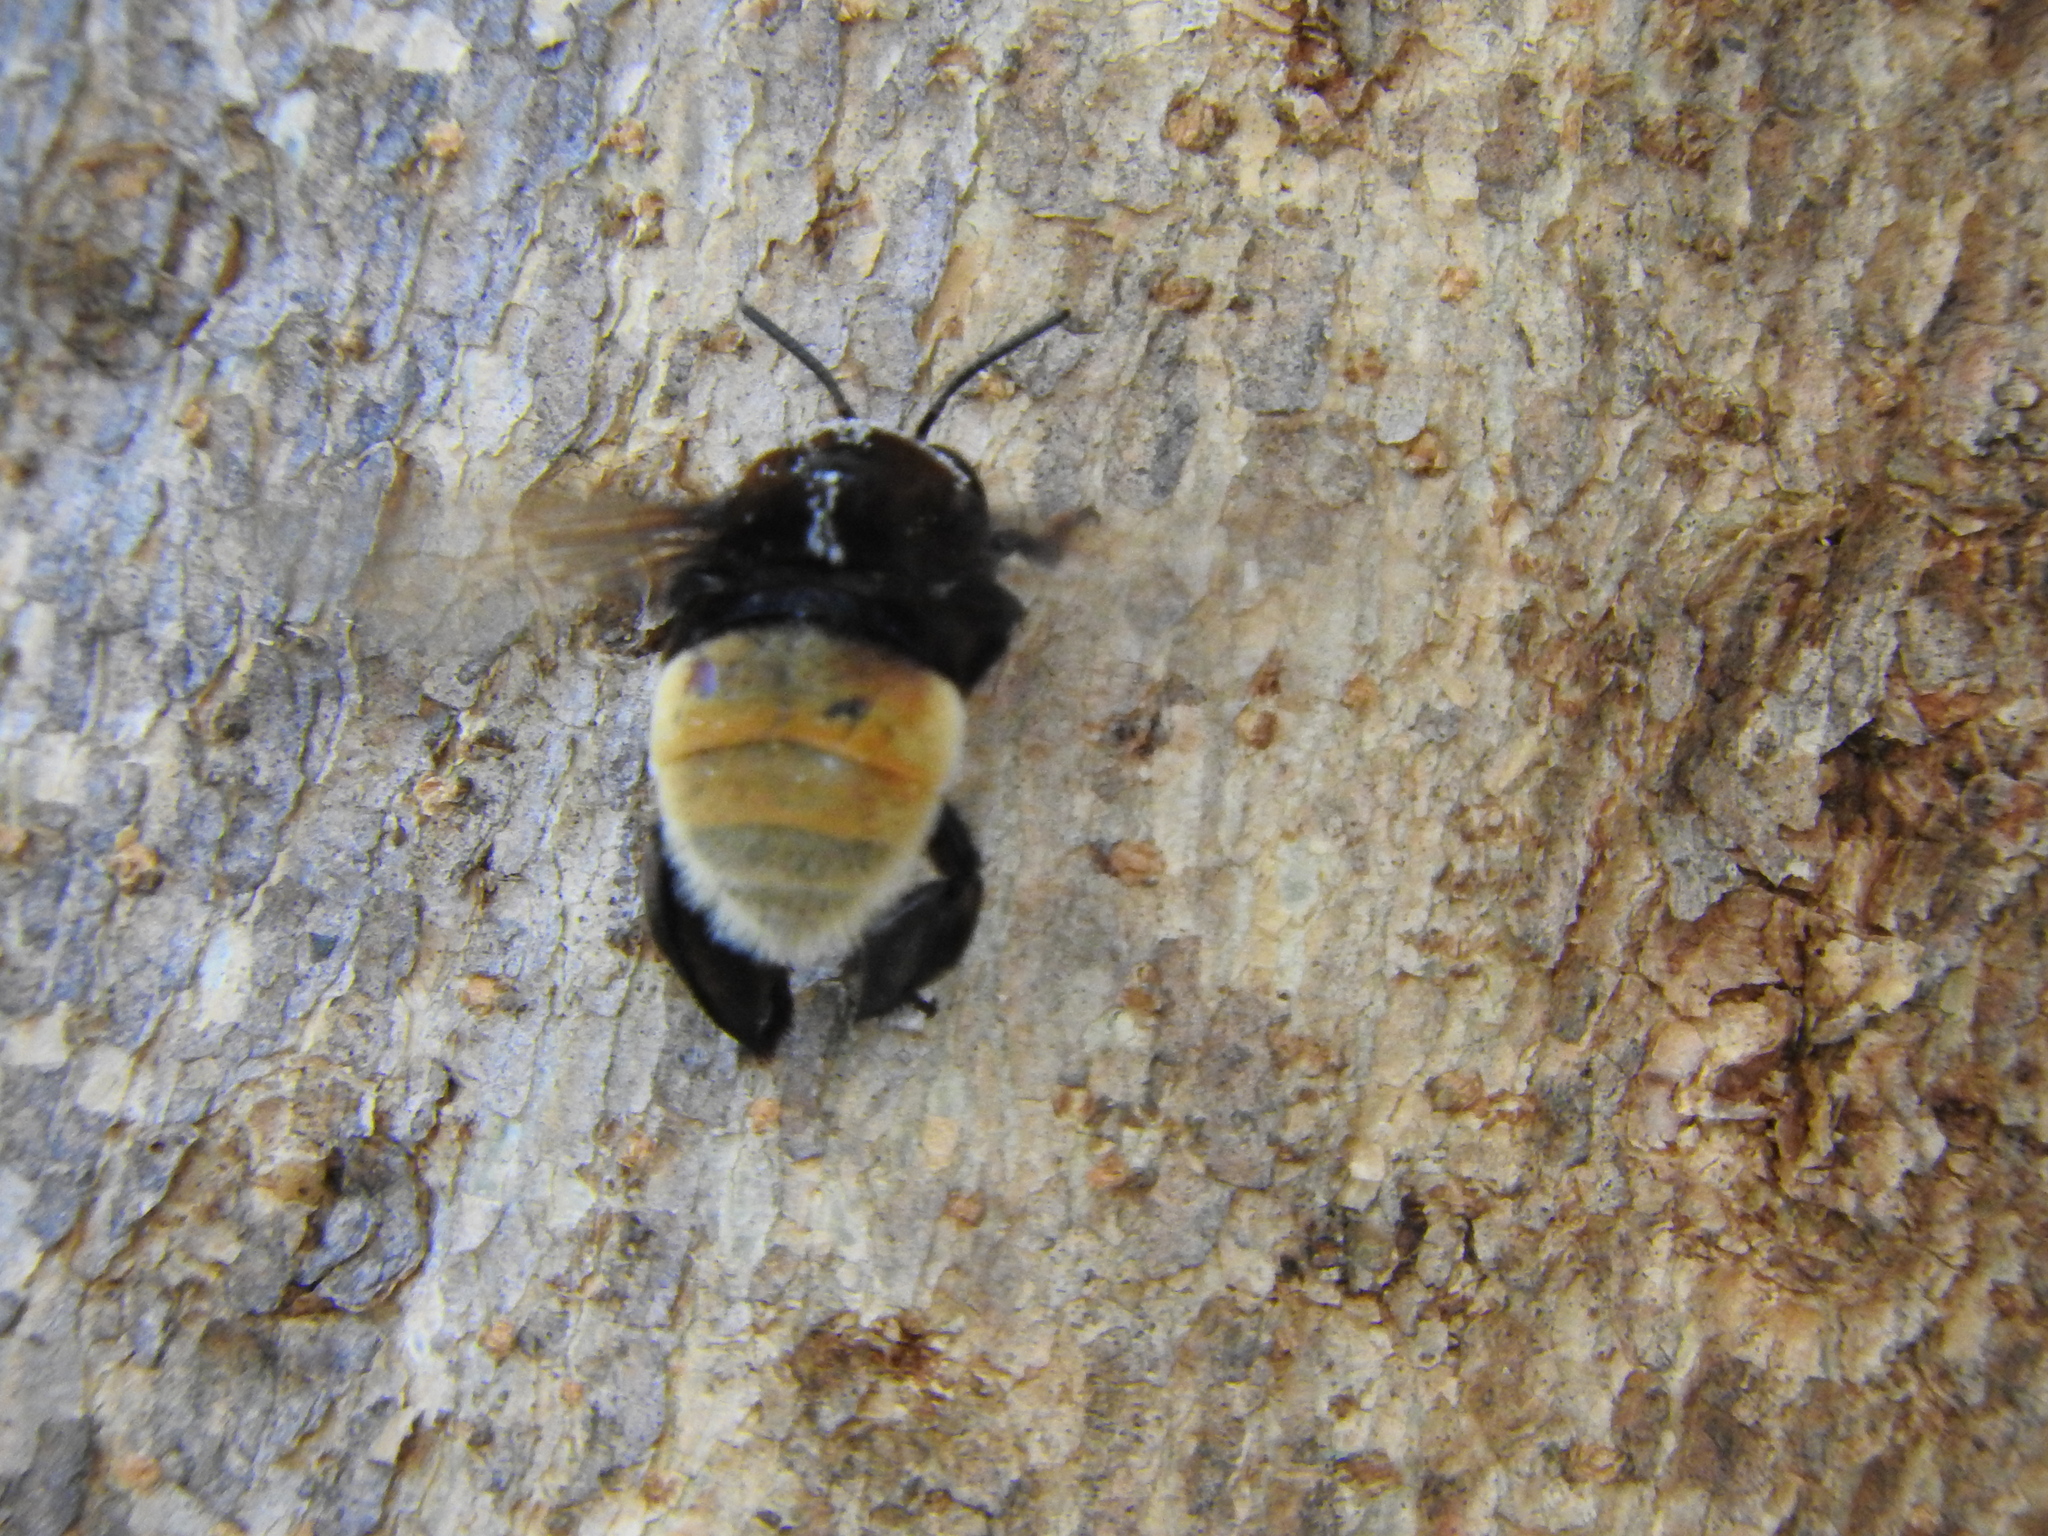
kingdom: Animalia
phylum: Arthropoda
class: Insecta
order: Hymenoptera
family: Apidae
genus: Eulaema
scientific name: Eulaema polychroma
